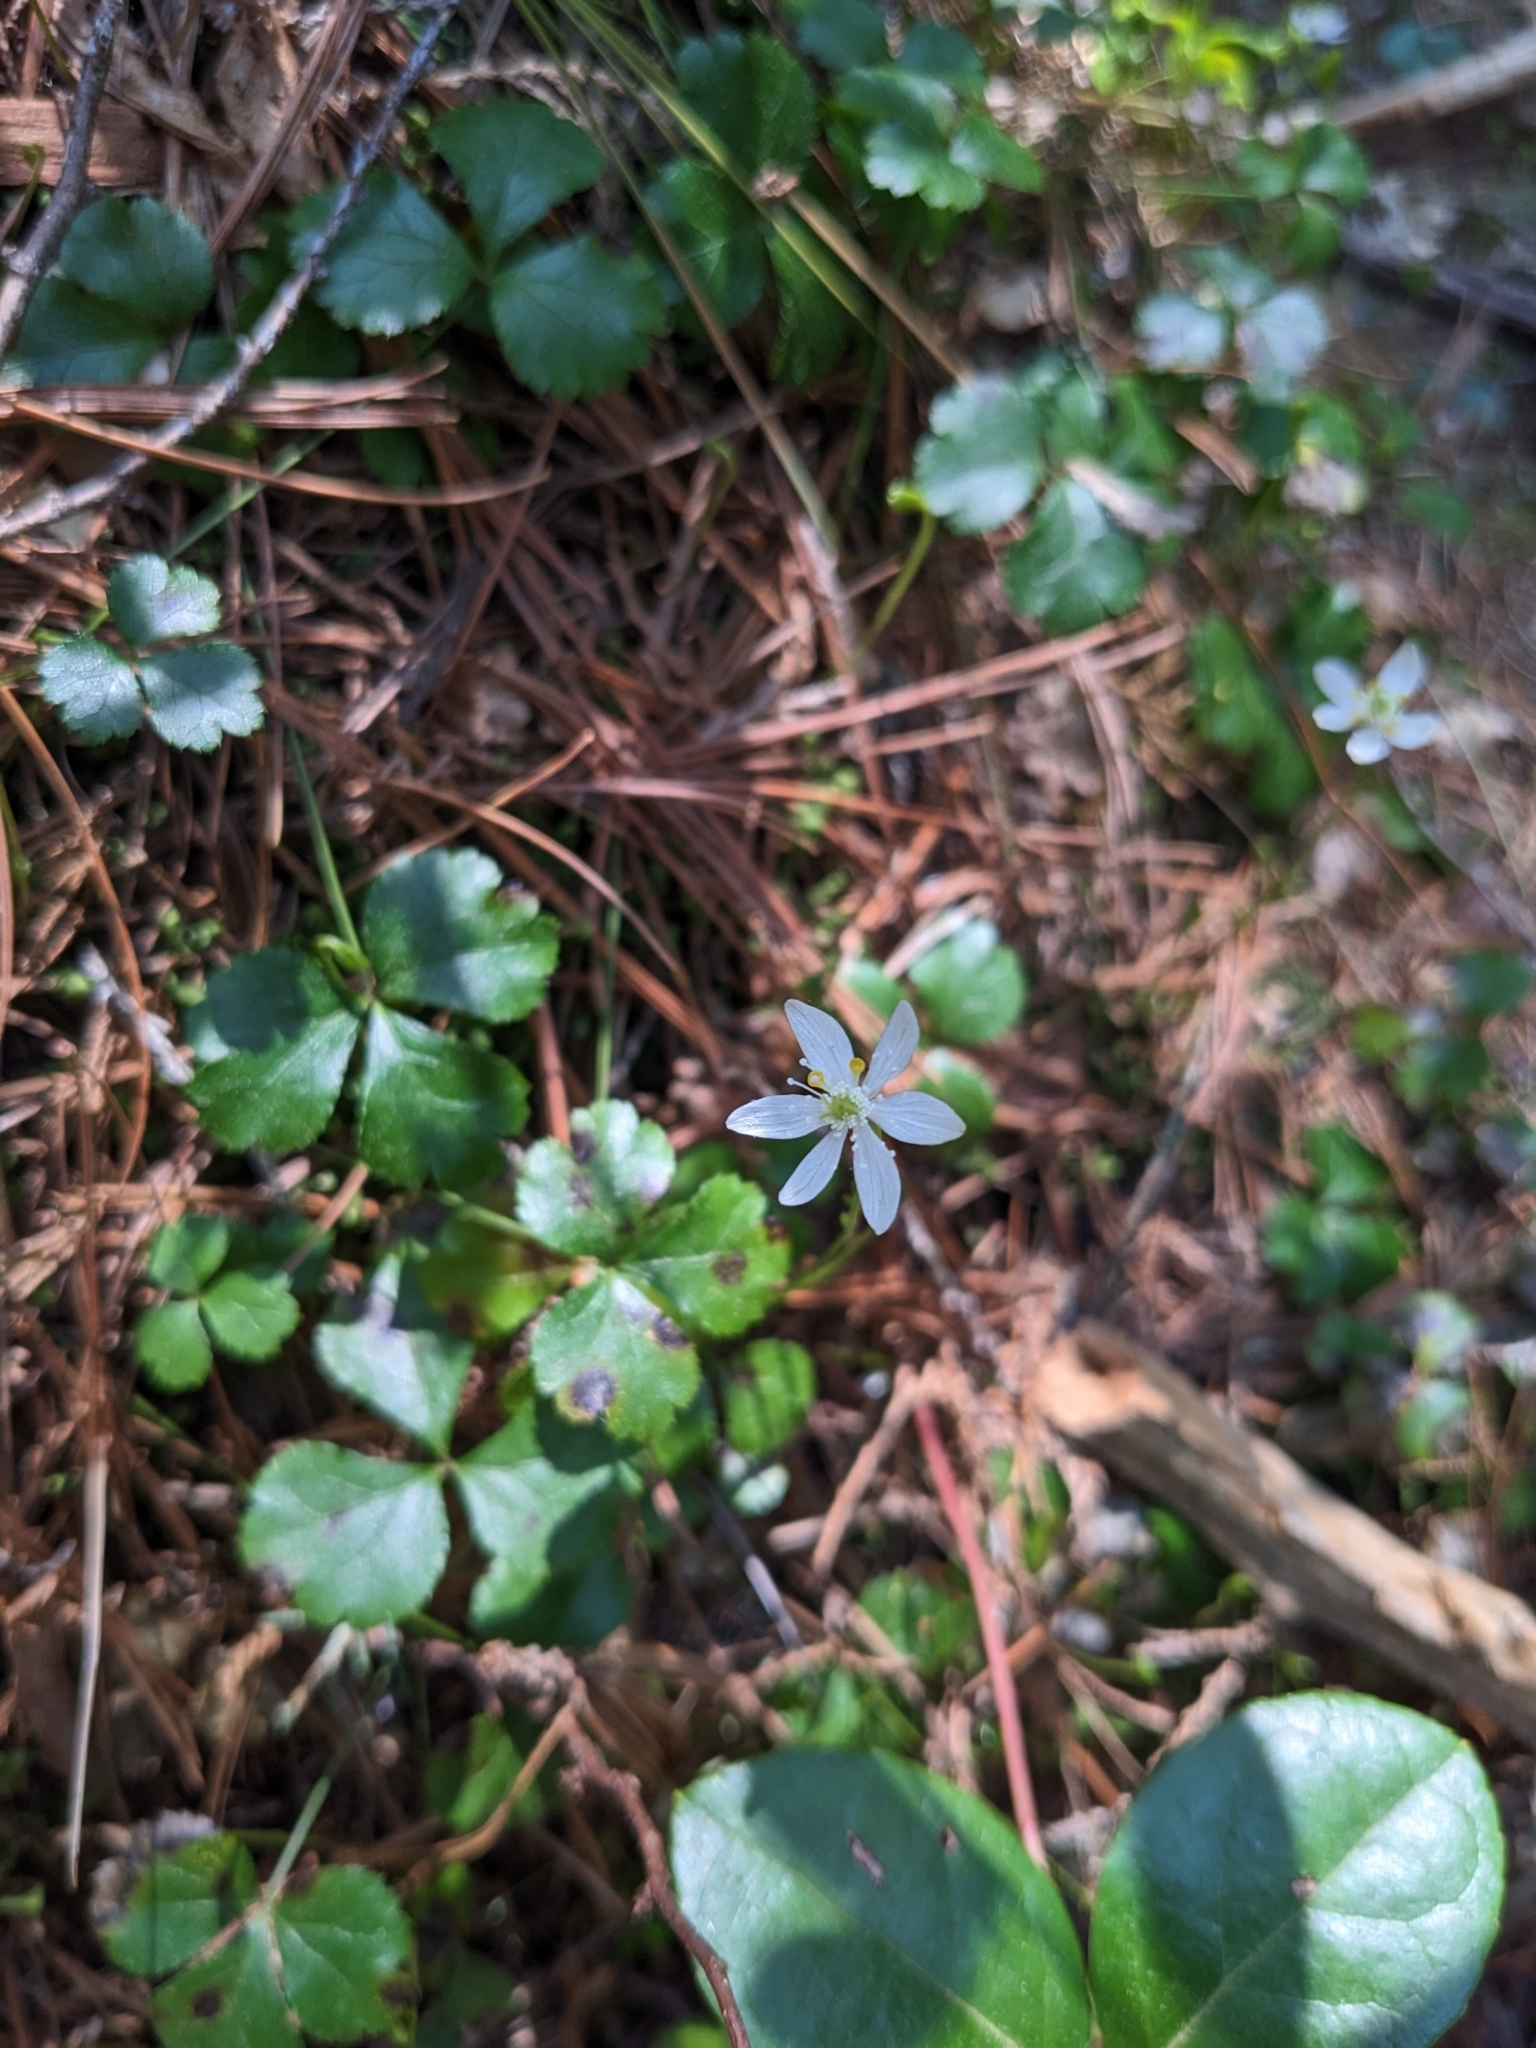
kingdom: Plantae
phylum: Tracheophyta
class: Magnoliopsida
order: Ranunculales
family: Ranunculaceae
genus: Coptis
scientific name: Coptis trifolia
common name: Canker-root
